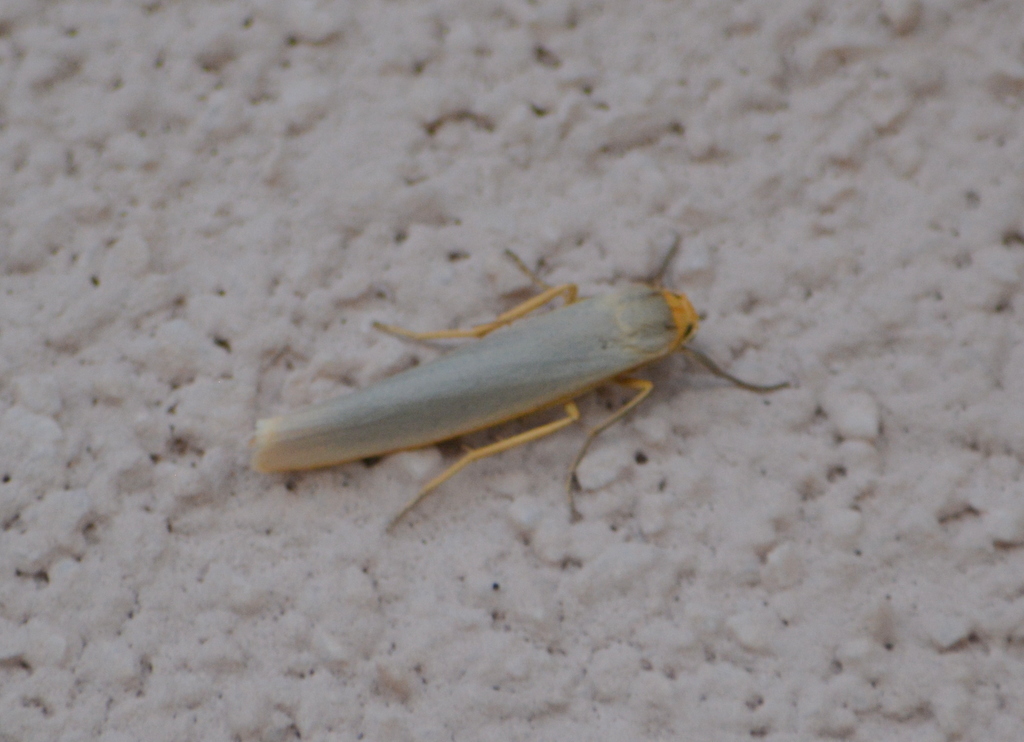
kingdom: Animalia
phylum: Arthropoda
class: Insecta
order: Lepidoptera
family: Erebidae
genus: Eilema
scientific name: Eilema caniola
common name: Hoary footman
